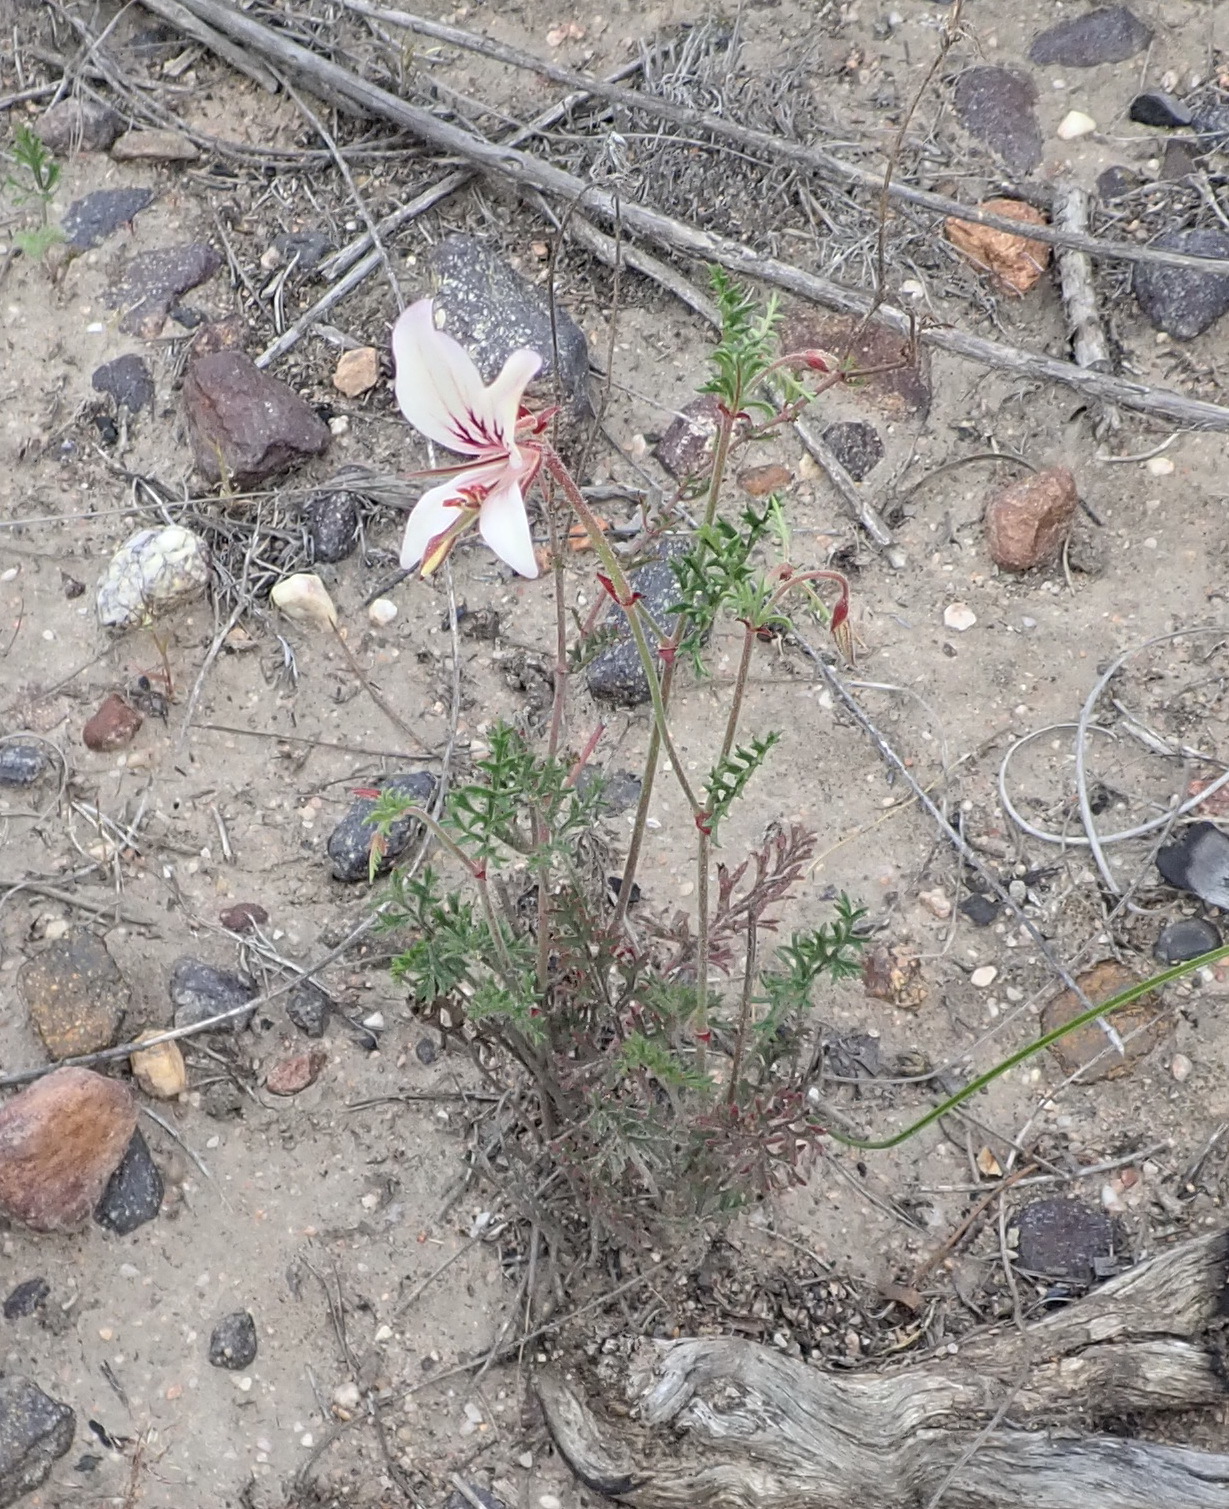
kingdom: Plantae
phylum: Tracheophyta
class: Magnoliopsida
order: Geraniales
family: Geraniaceae
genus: Pelargonium
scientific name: Pelargonium caucalifolium
